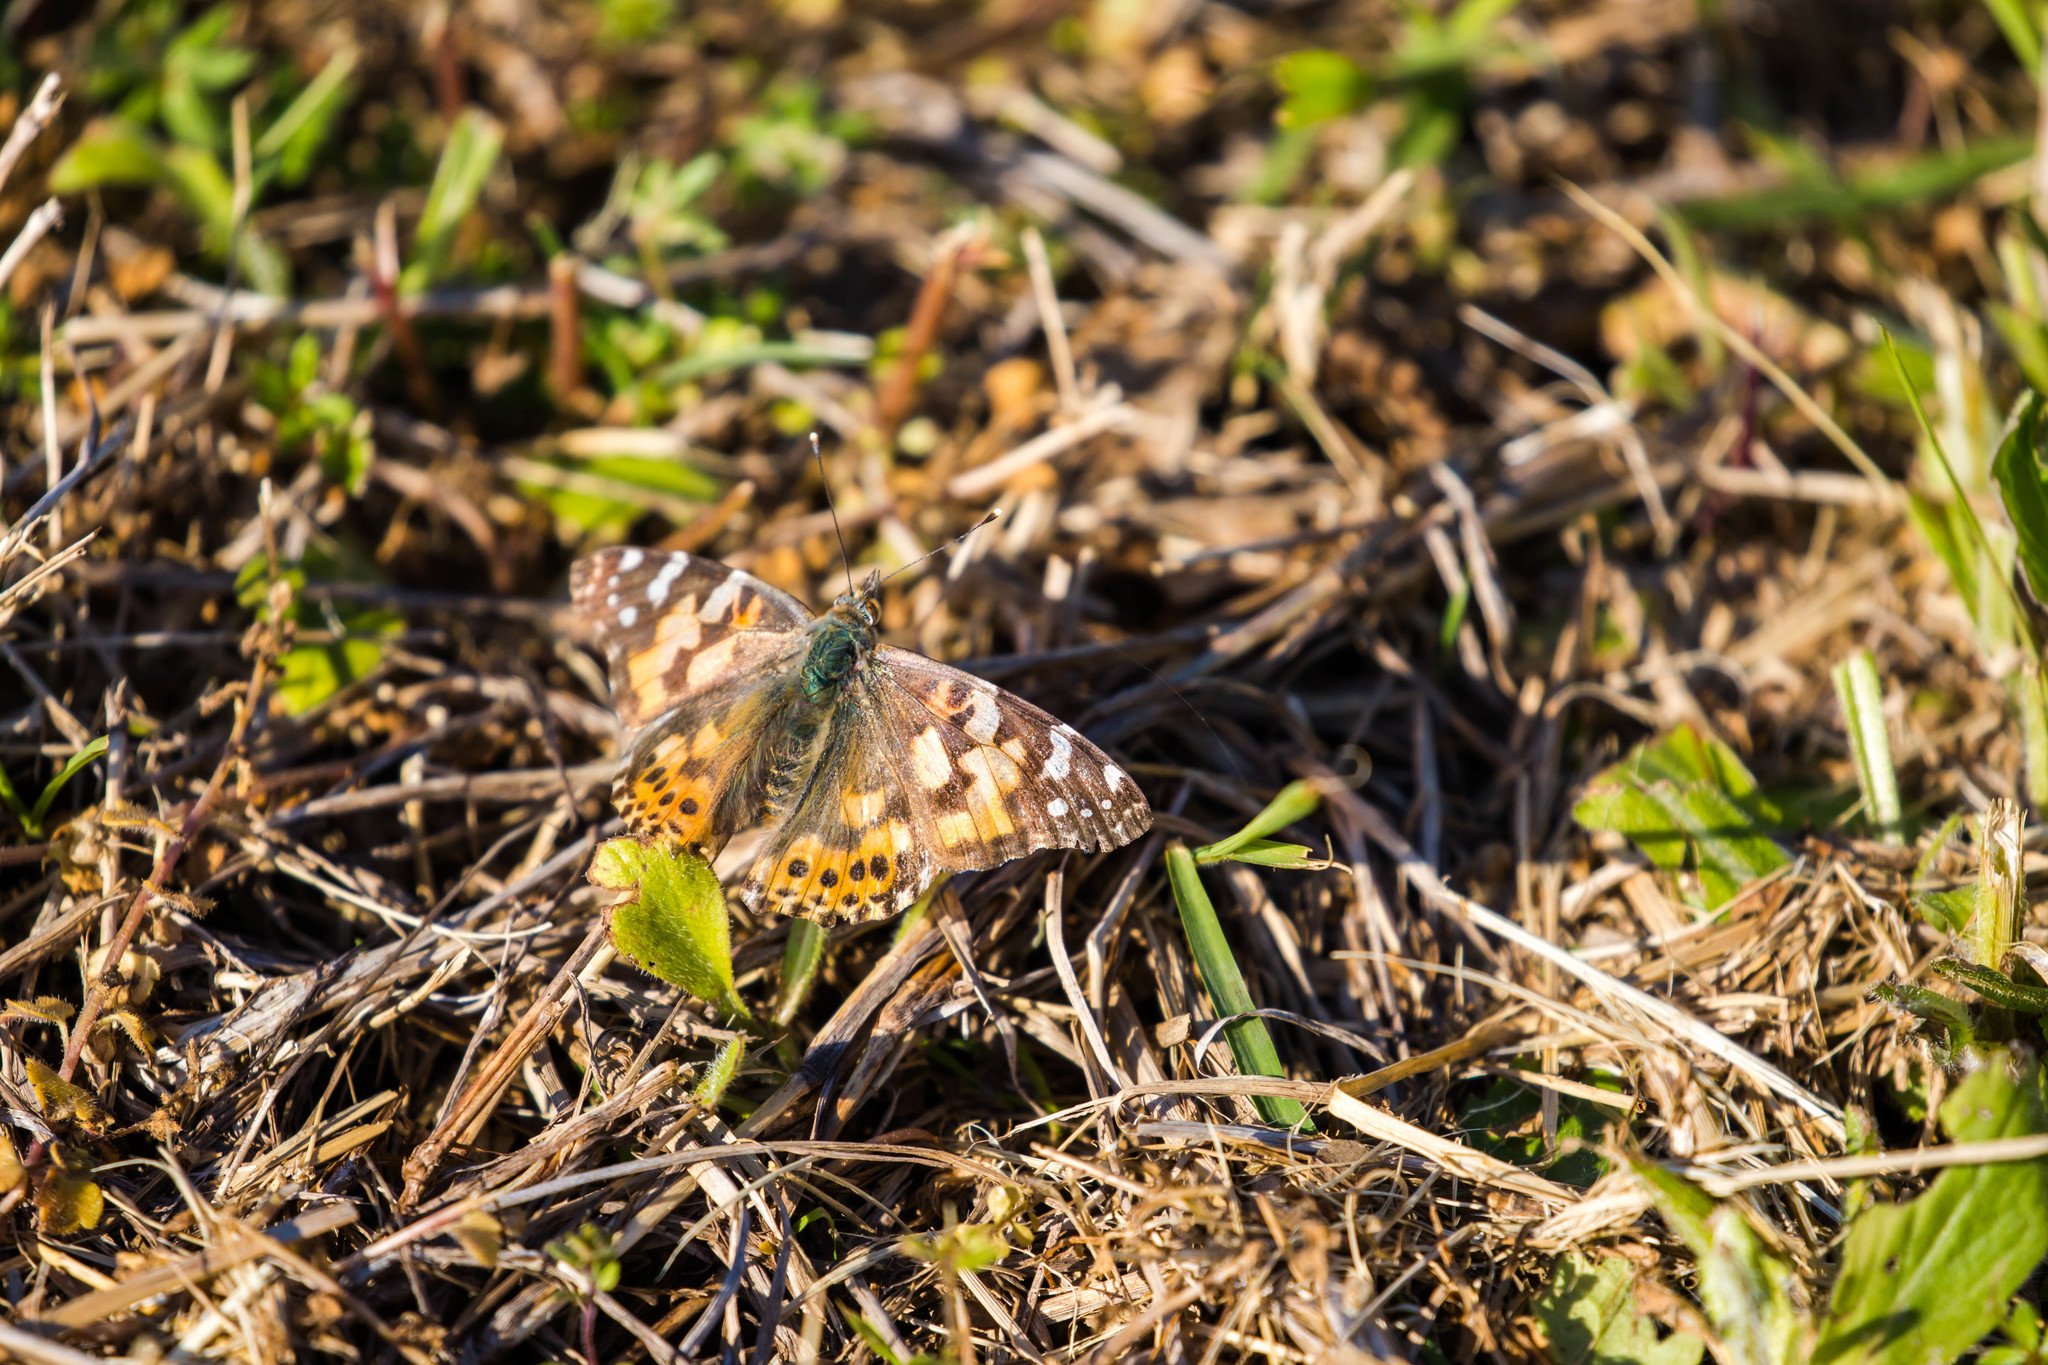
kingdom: Animalia
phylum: Arthropoda
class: Insecta
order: Lepidoptera
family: Nymphalidae
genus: Vanessa
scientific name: Vanessa cardui
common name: Painted lady
